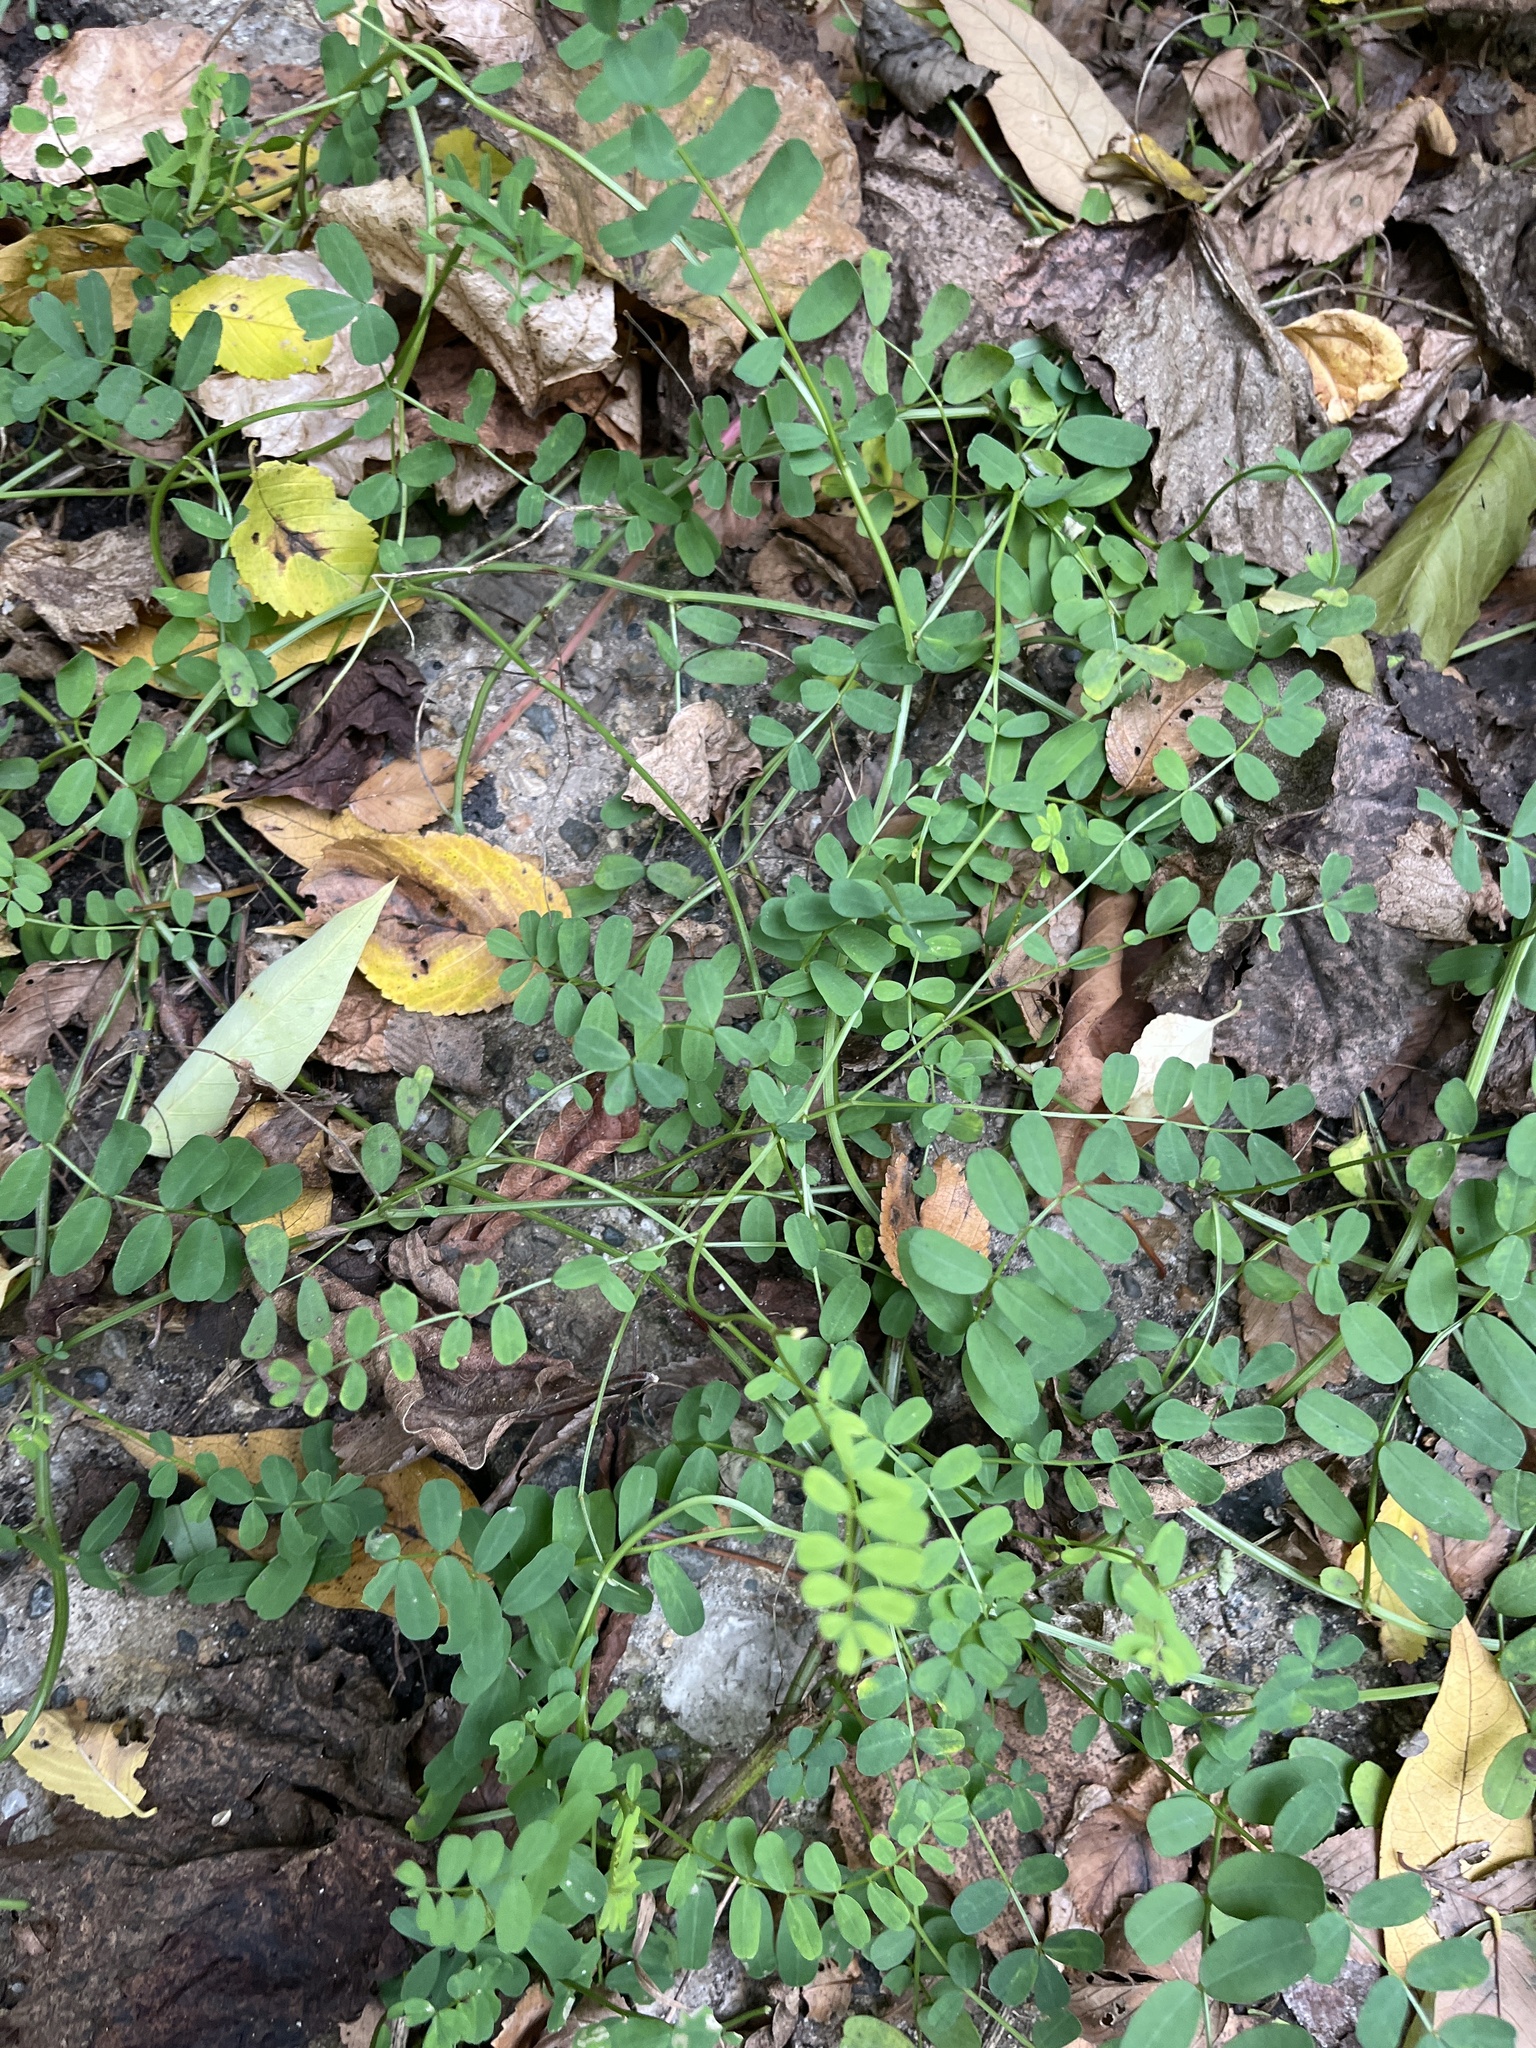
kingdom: Plantae
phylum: Tracheophyta
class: Magnoliopsida
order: Fabales
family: Fabaceae
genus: Coronilla
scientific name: Coronilla varia
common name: Crownvetch
